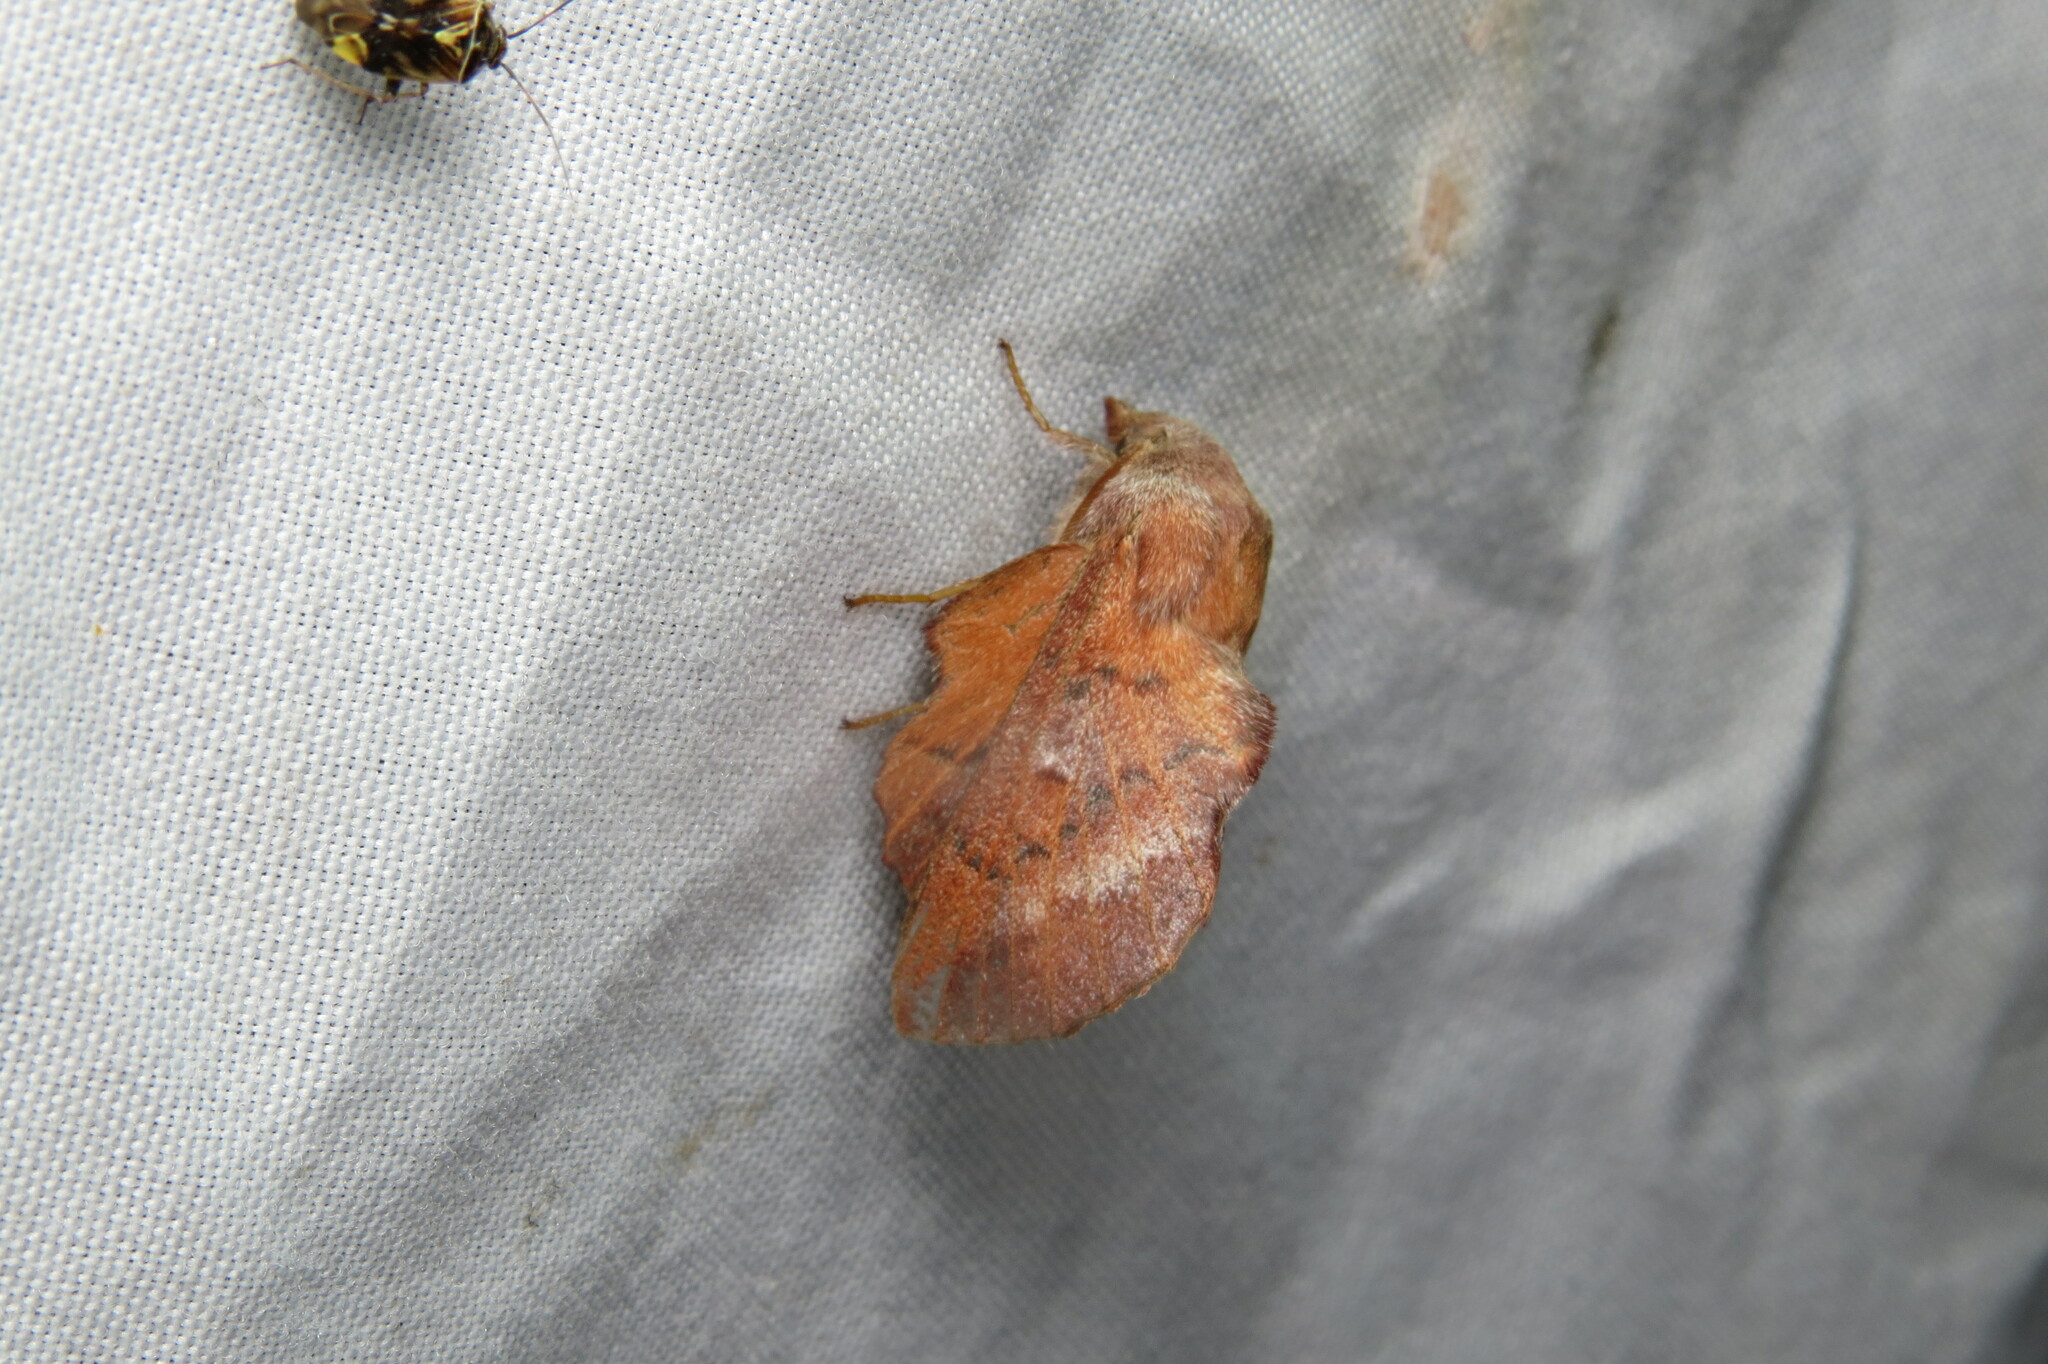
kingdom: Animalia
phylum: Arthropoda
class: Insecta
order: Lepidoptera
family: Lasiocampidae
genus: Phyllodesma
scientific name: Phyllodesma americana
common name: American lappet moth
